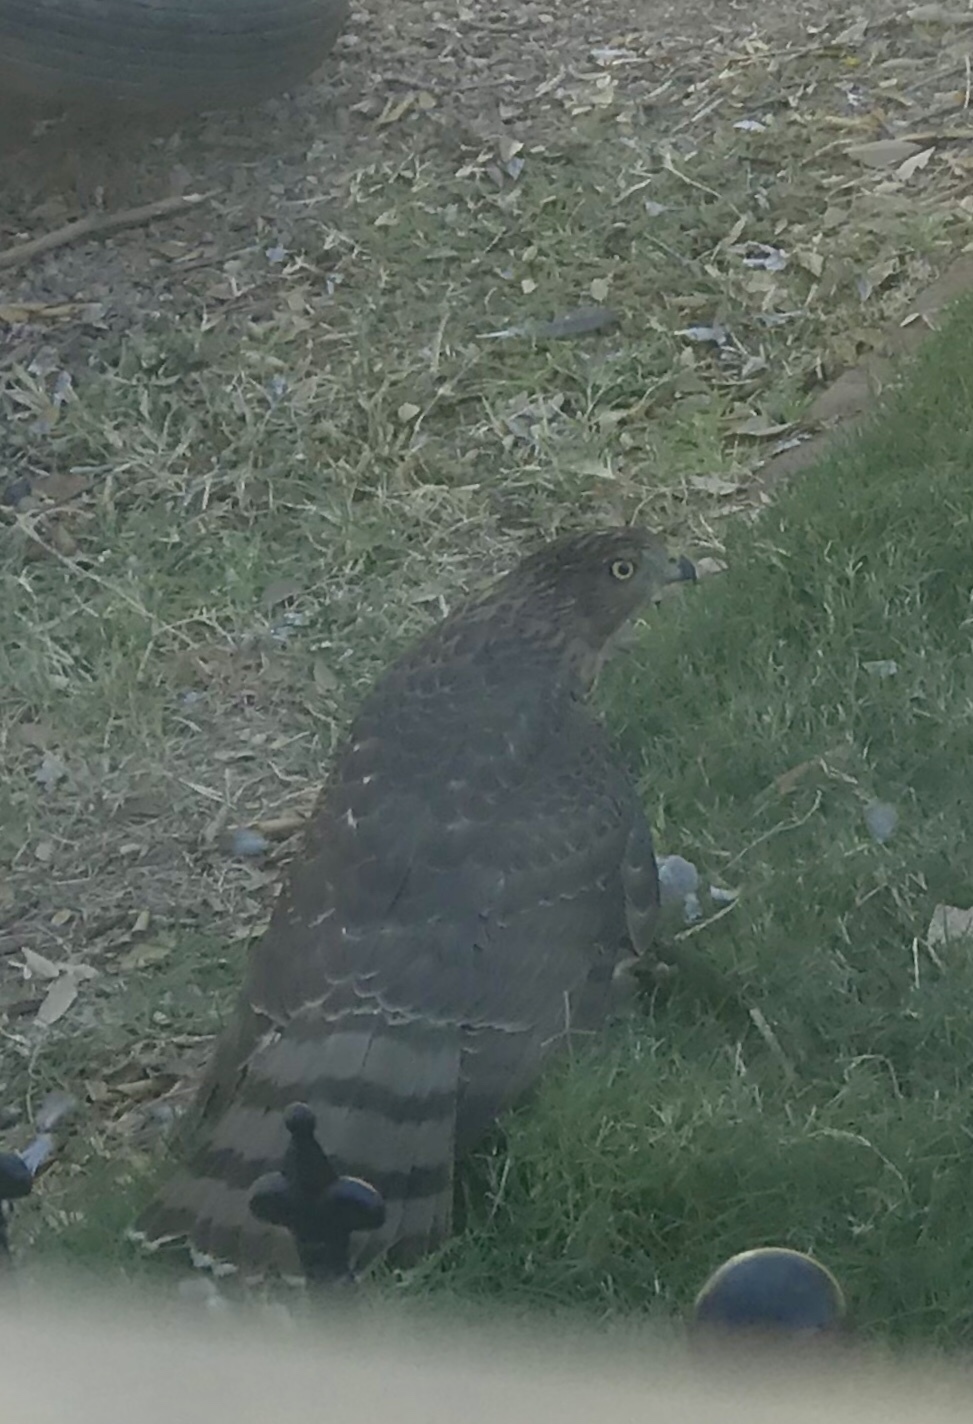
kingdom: Animalia
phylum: Chordata
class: Aves
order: Accipitriformes
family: Accipitridae
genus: Accipiter
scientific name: Accipiter cooperii
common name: Cooper's hawk
